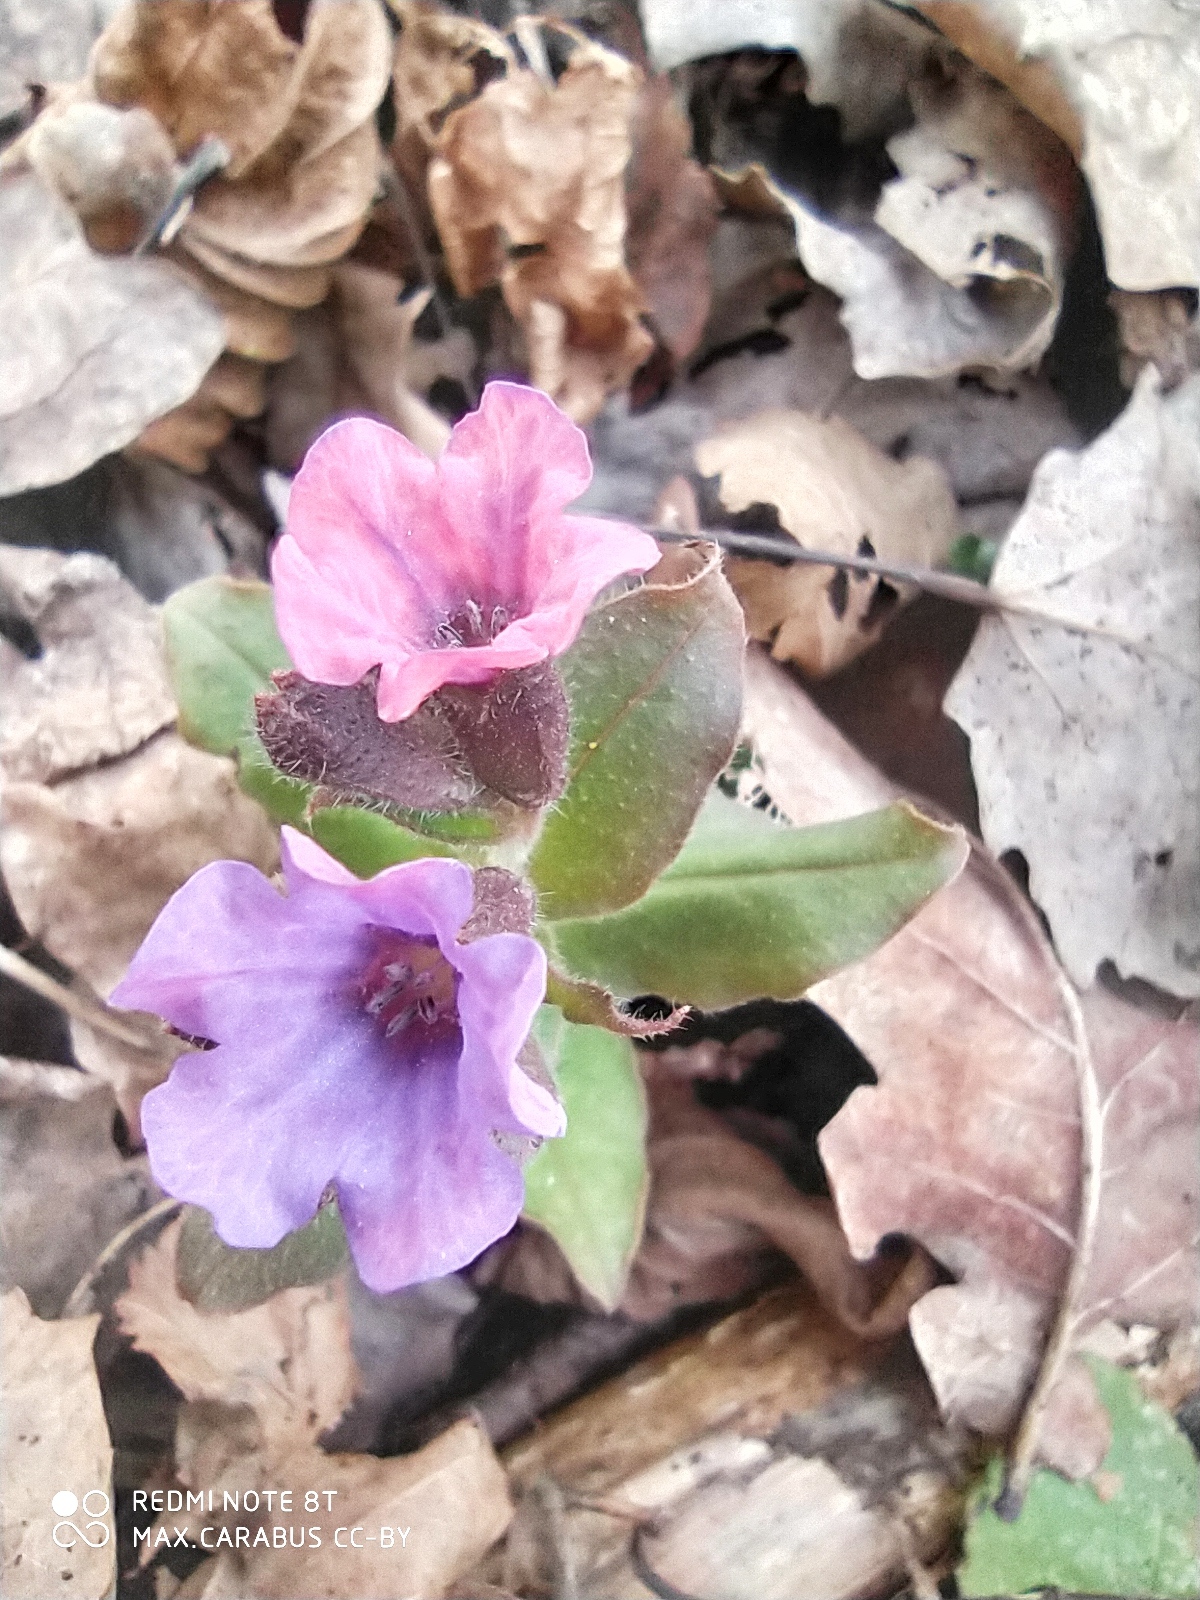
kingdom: Plantae
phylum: Tracheophyta
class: Magnoliopsida
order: Boraginales
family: Boraginaceae
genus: Pulmonaria
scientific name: Pulmonaria obscura
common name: Suffolk lungwort
